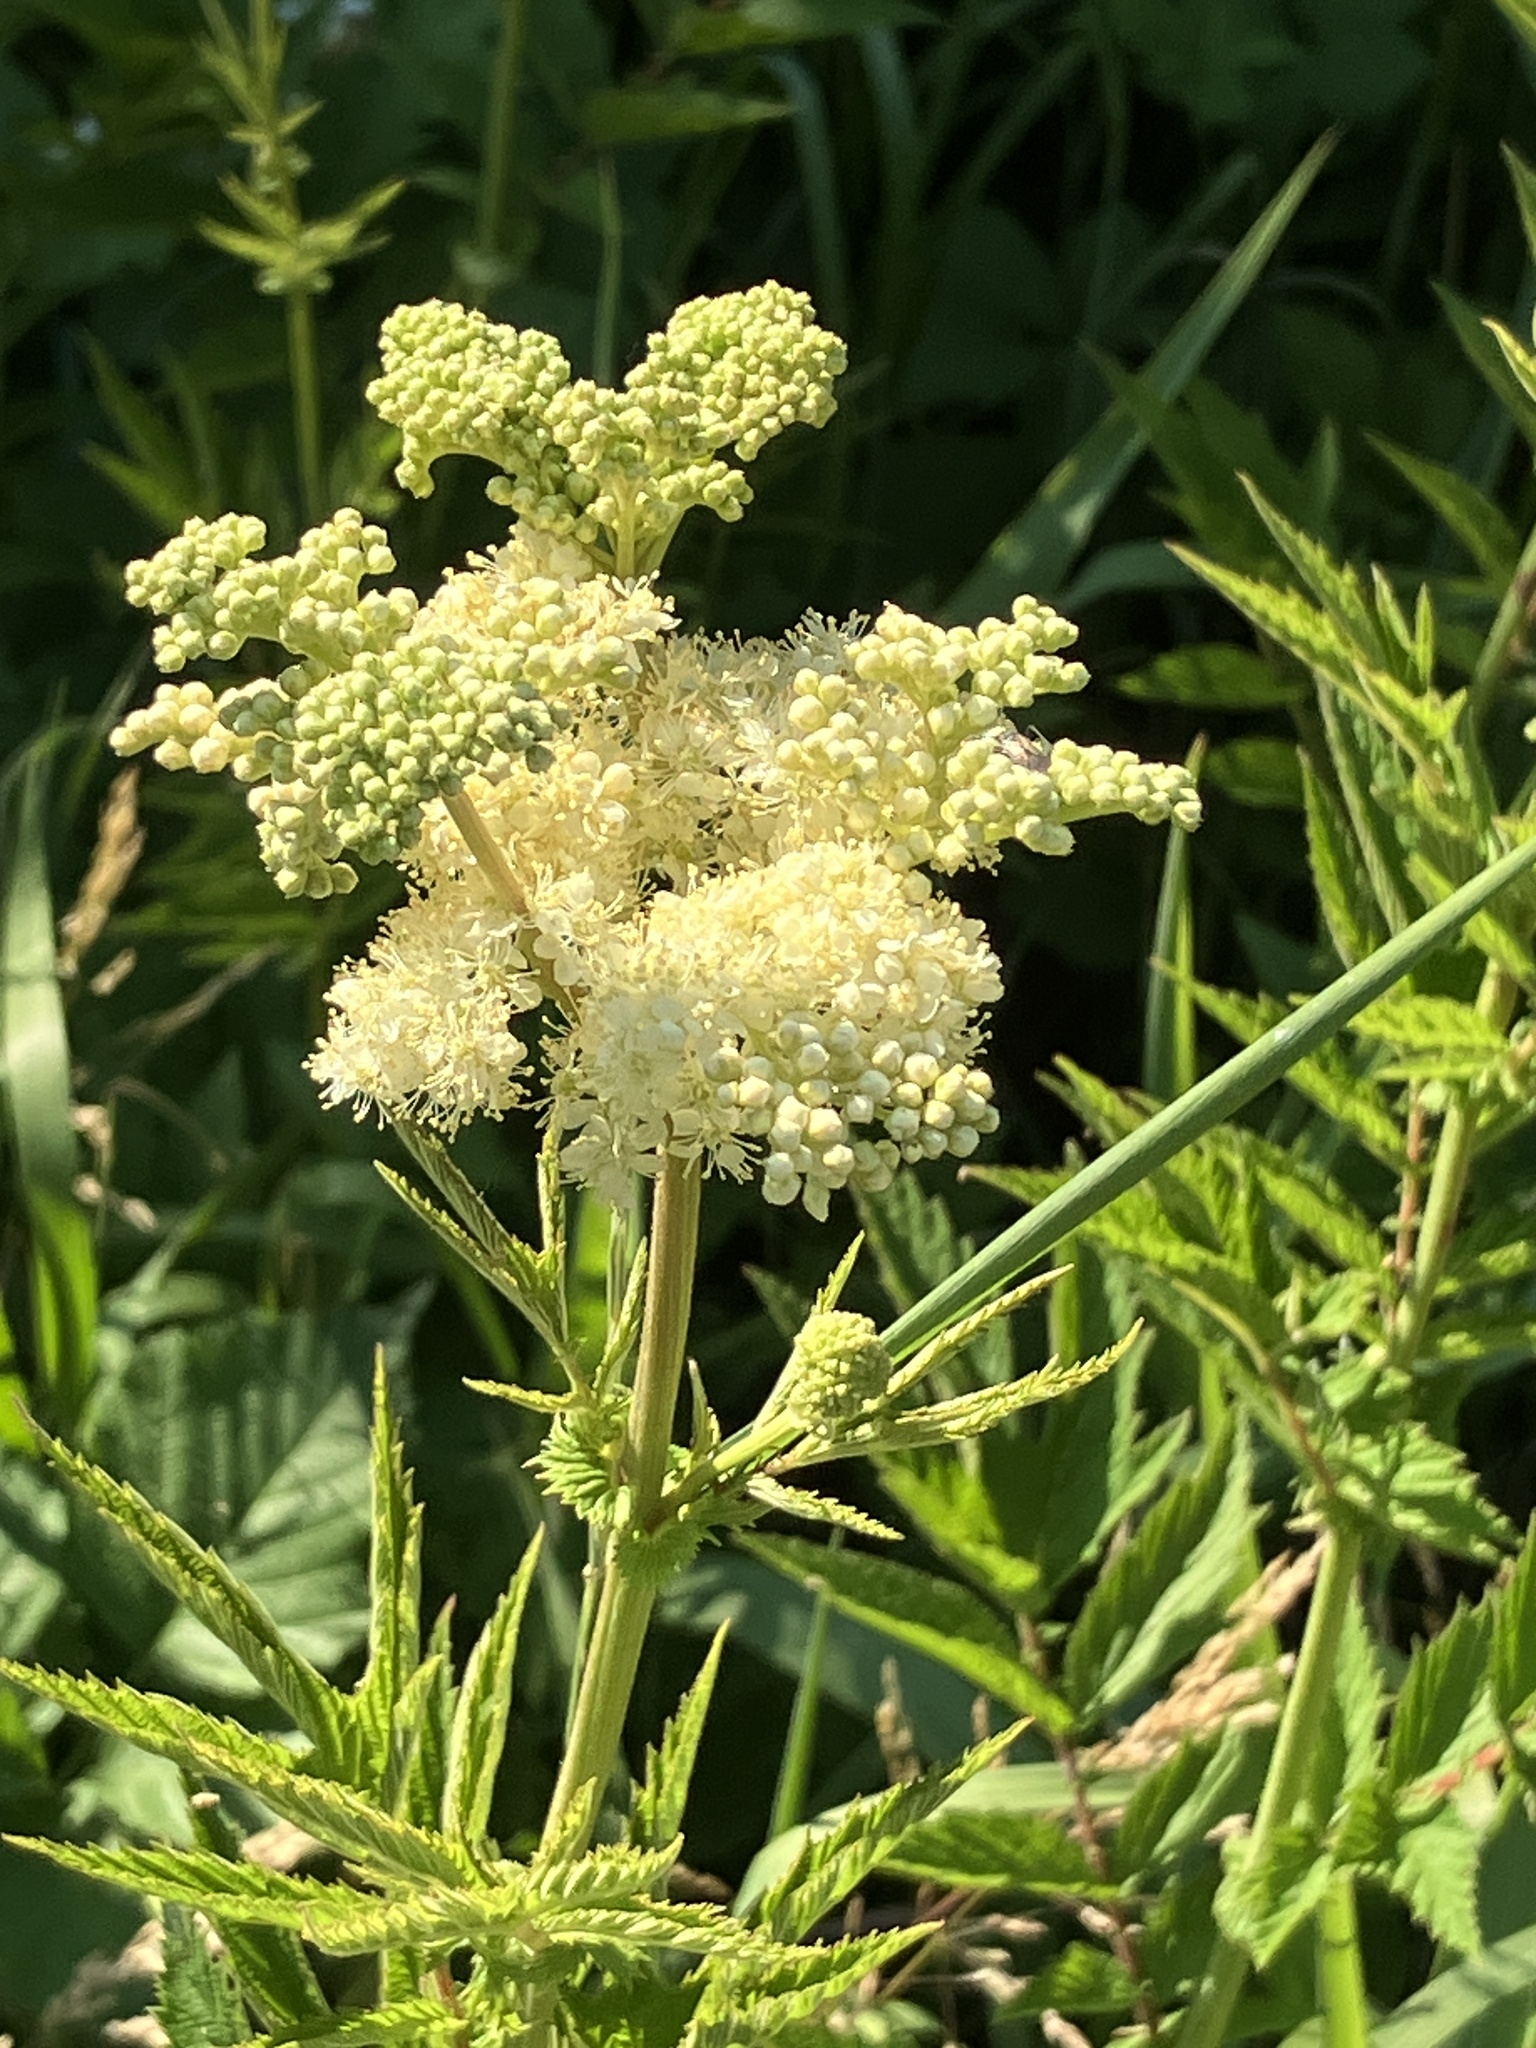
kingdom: Plantae
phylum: Tracheophyta
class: Magnoliopsida
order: Rosales
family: Rosaceae
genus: Filipendula
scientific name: Filipendula ulmaria
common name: Meadowsweet
